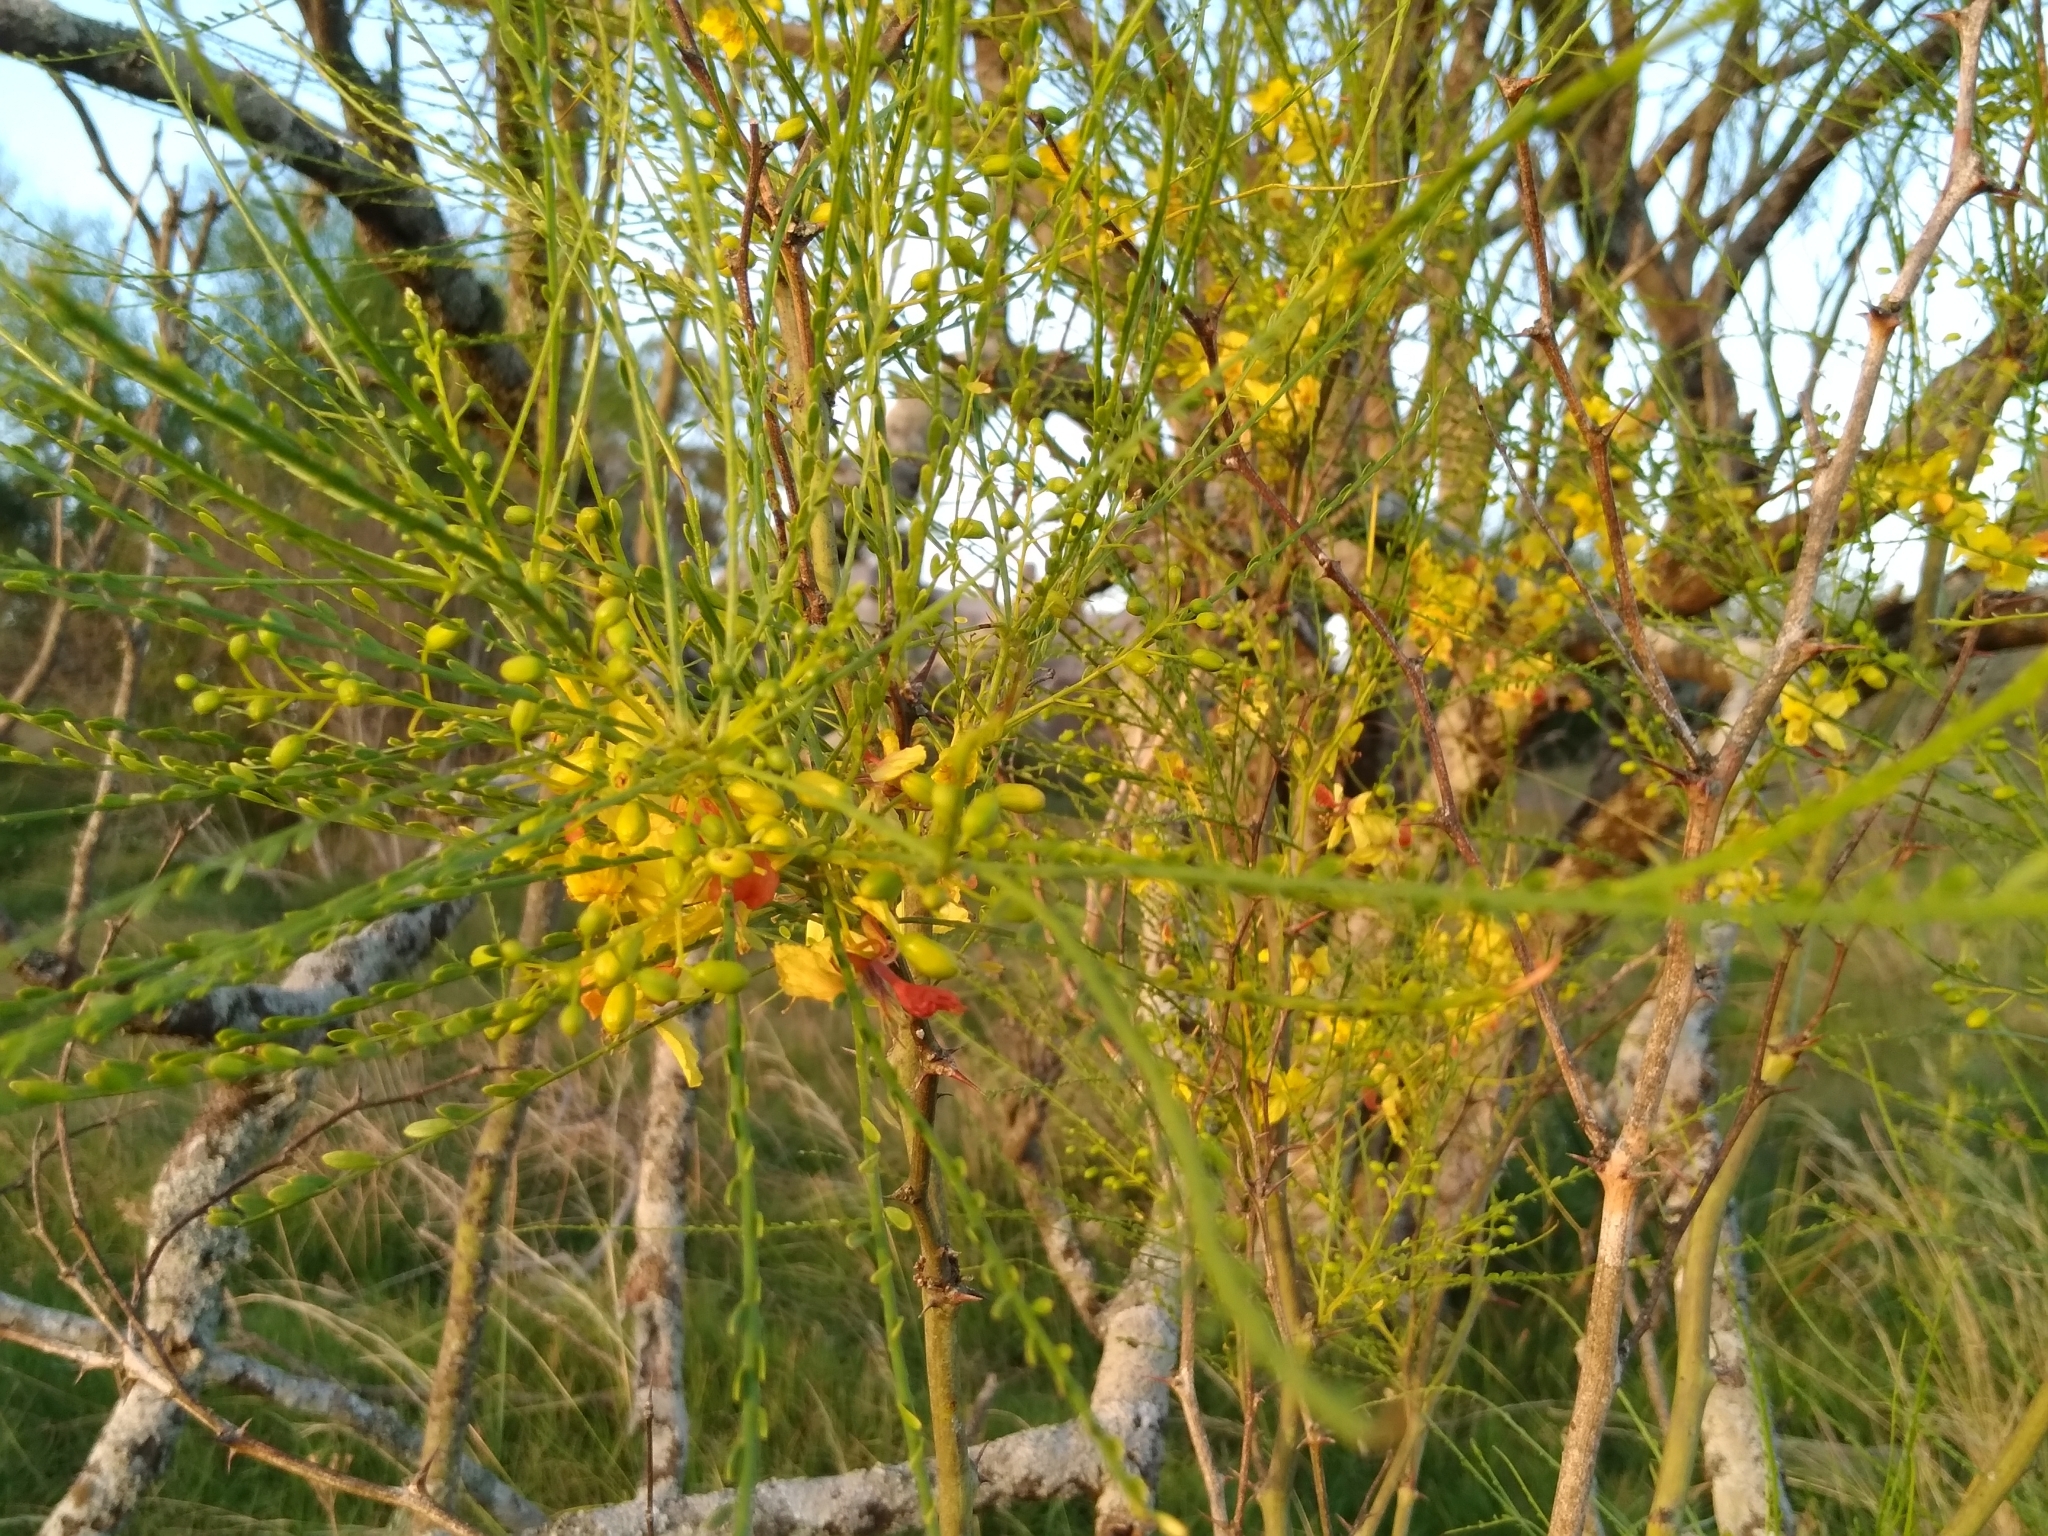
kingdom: Plantae
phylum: Tracheophyta
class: Magnoliopsida
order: Fabales
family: Fabaceae
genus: Parkinsonia
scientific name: Parkinsonia aculeata
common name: Jerusalem thorn
